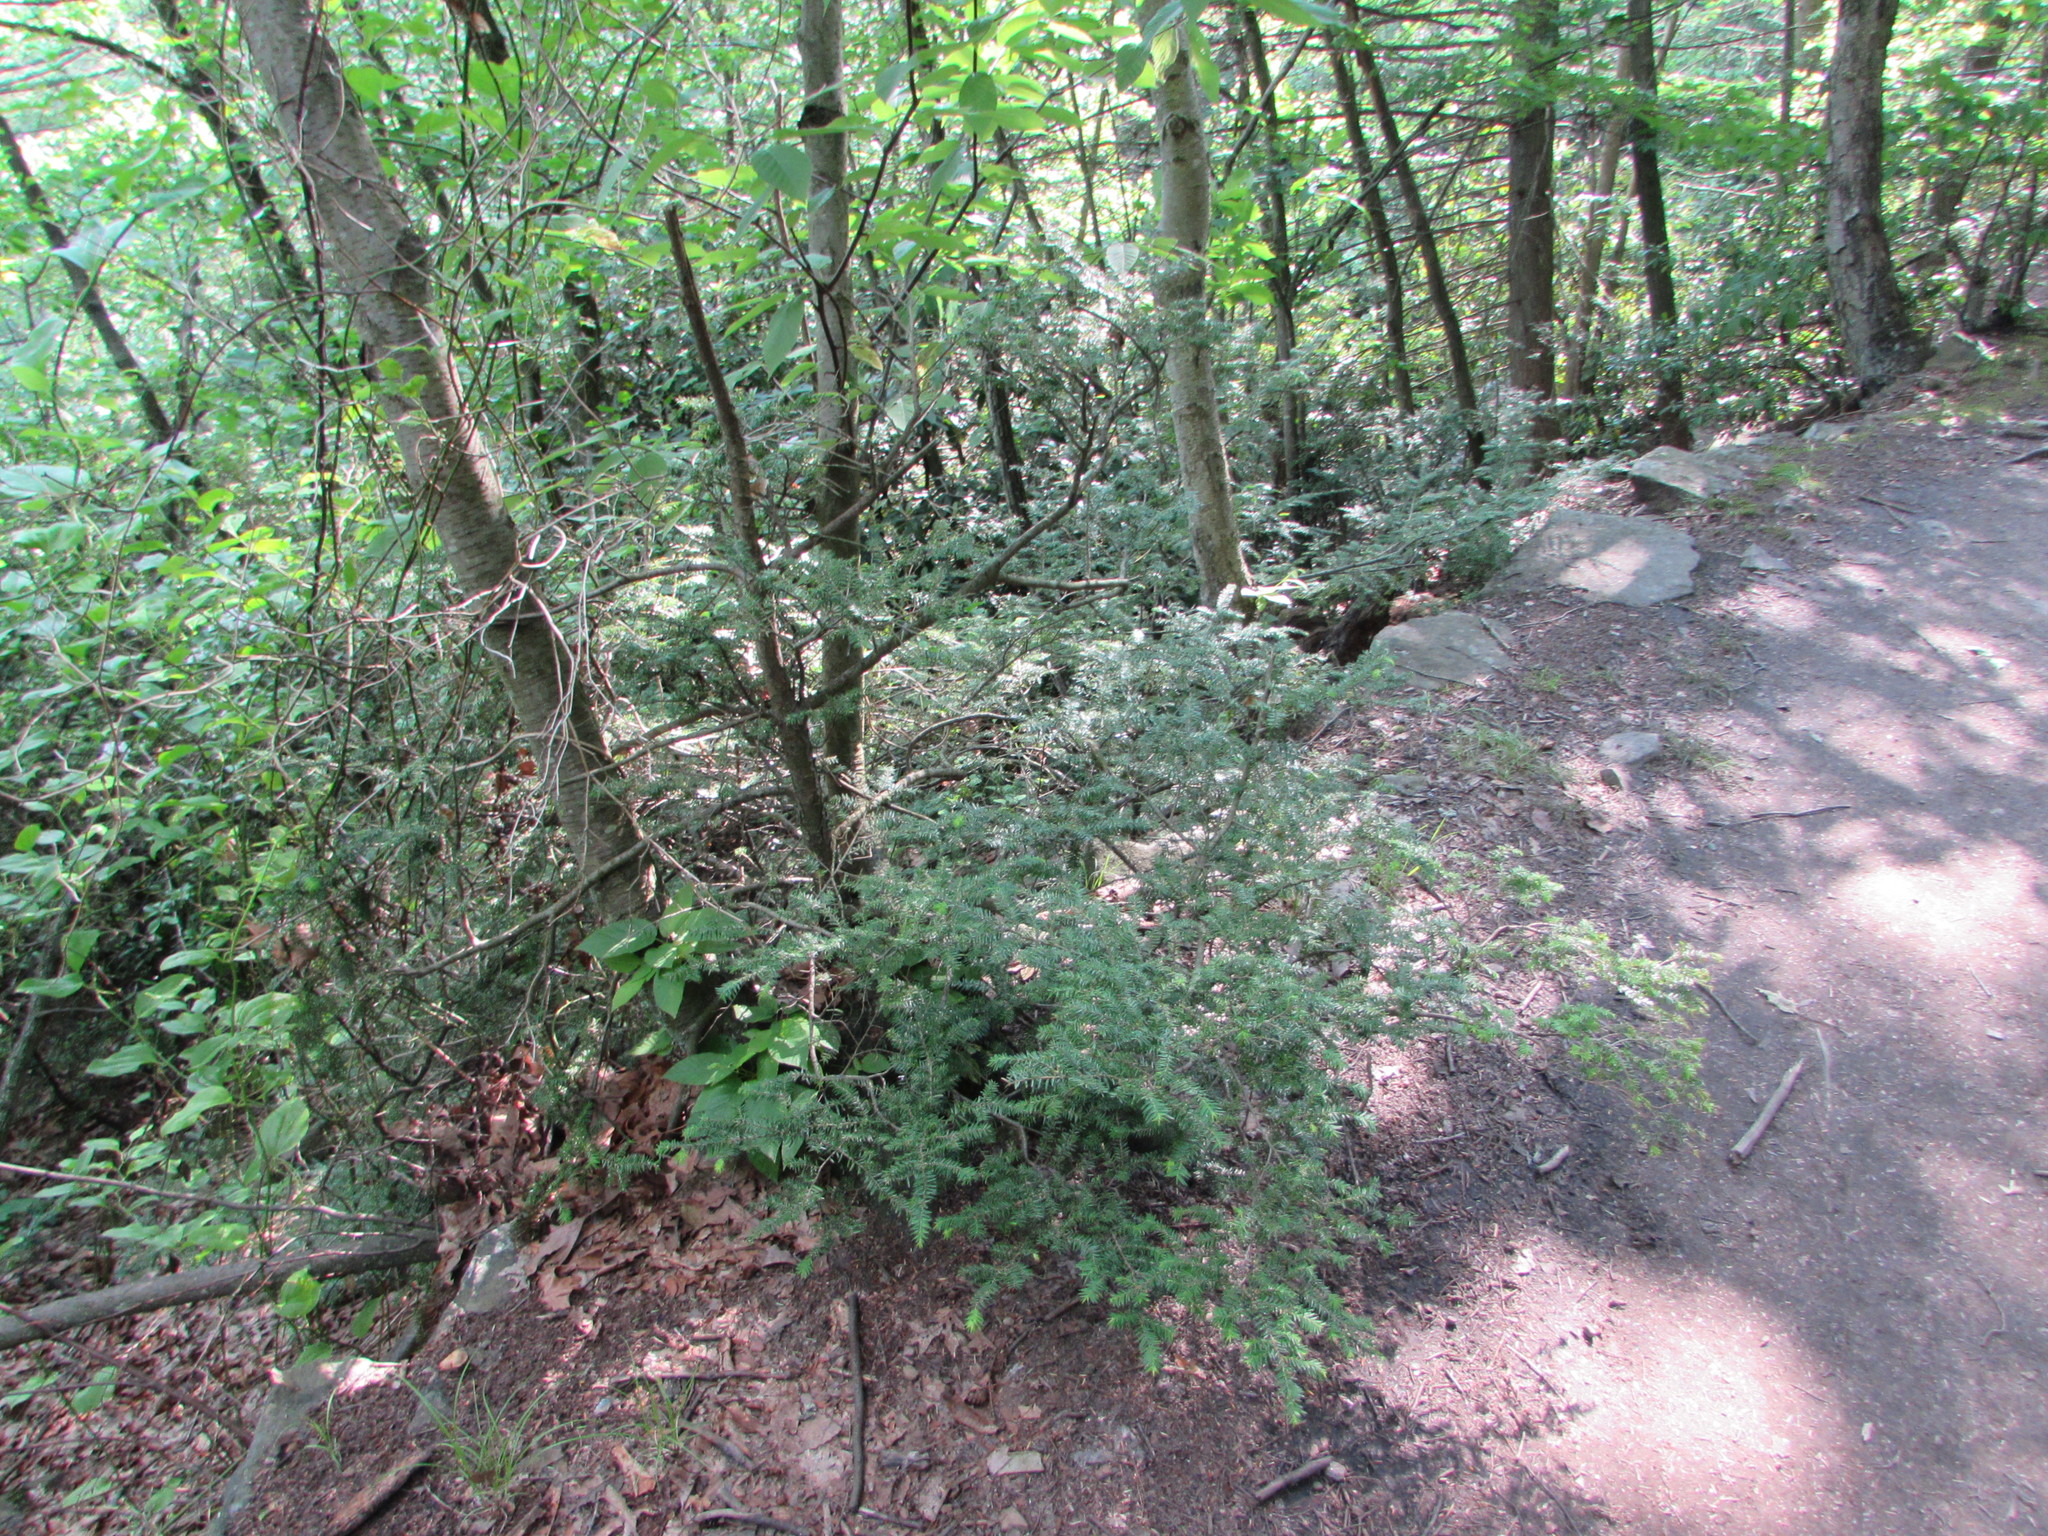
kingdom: Plantae
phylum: Tracheophyta
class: Pinopsida
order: Pinales
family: Pinaceae
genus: Tsuga
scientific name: Tsuga canadensis
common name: Eastern hemlock
